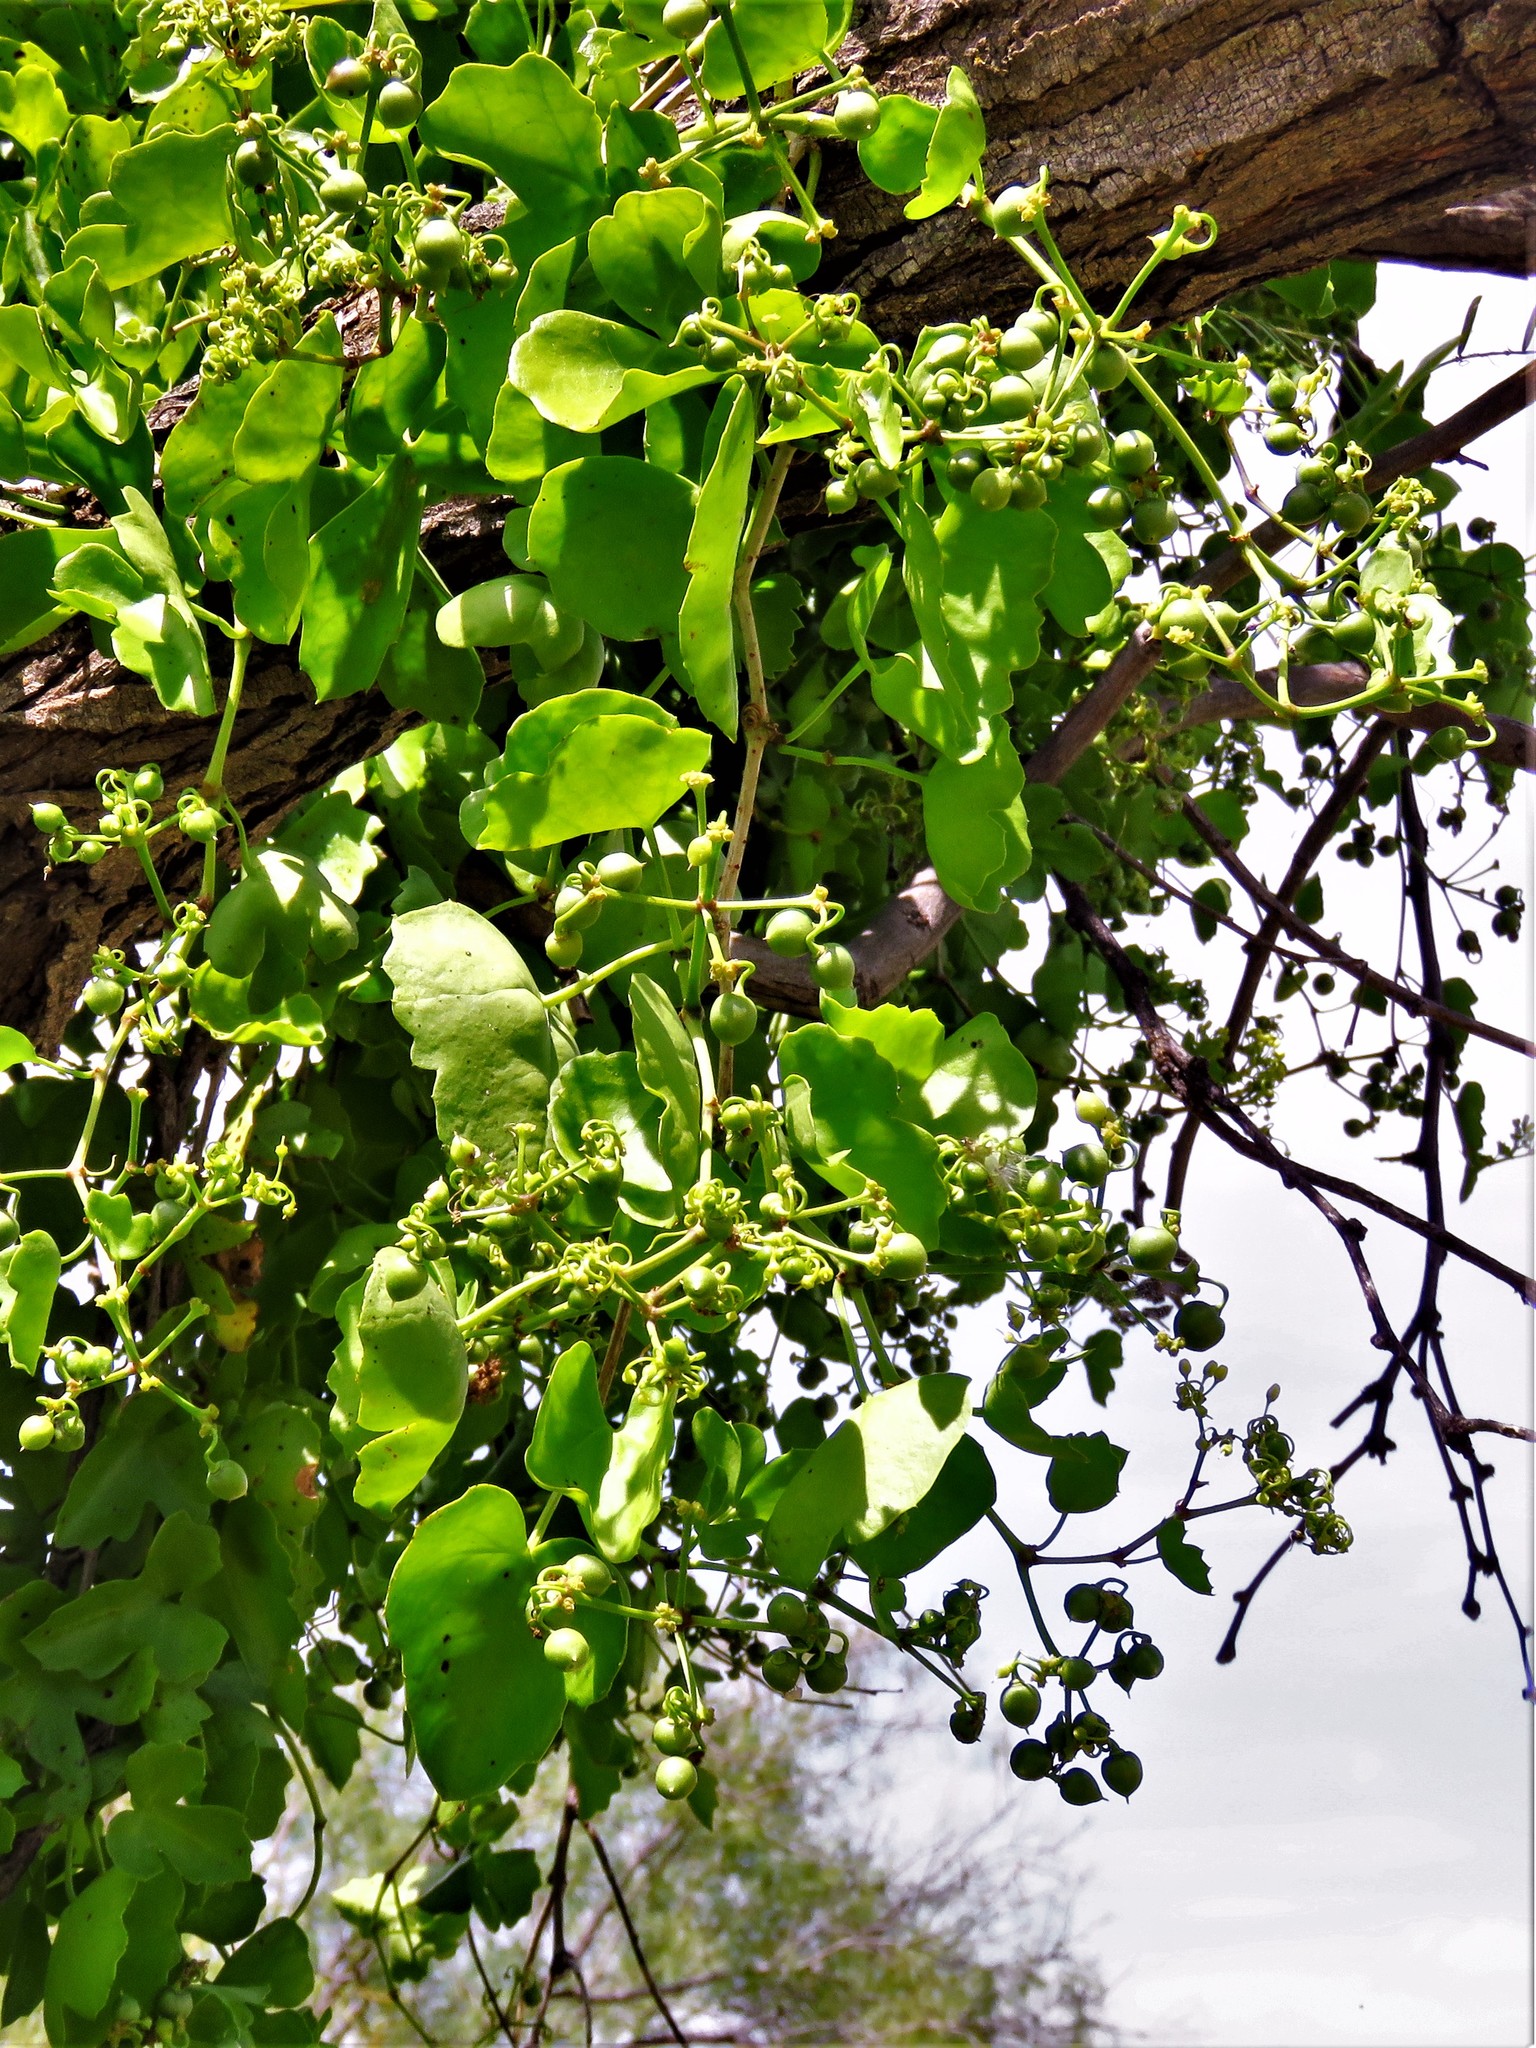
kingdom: Plantae
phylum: Tracheophyta
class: Magnoliopsida
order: Vitales
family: Vitaceae
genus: Cissus
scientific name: Cissus trifoliata
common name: Vine-sorrel
